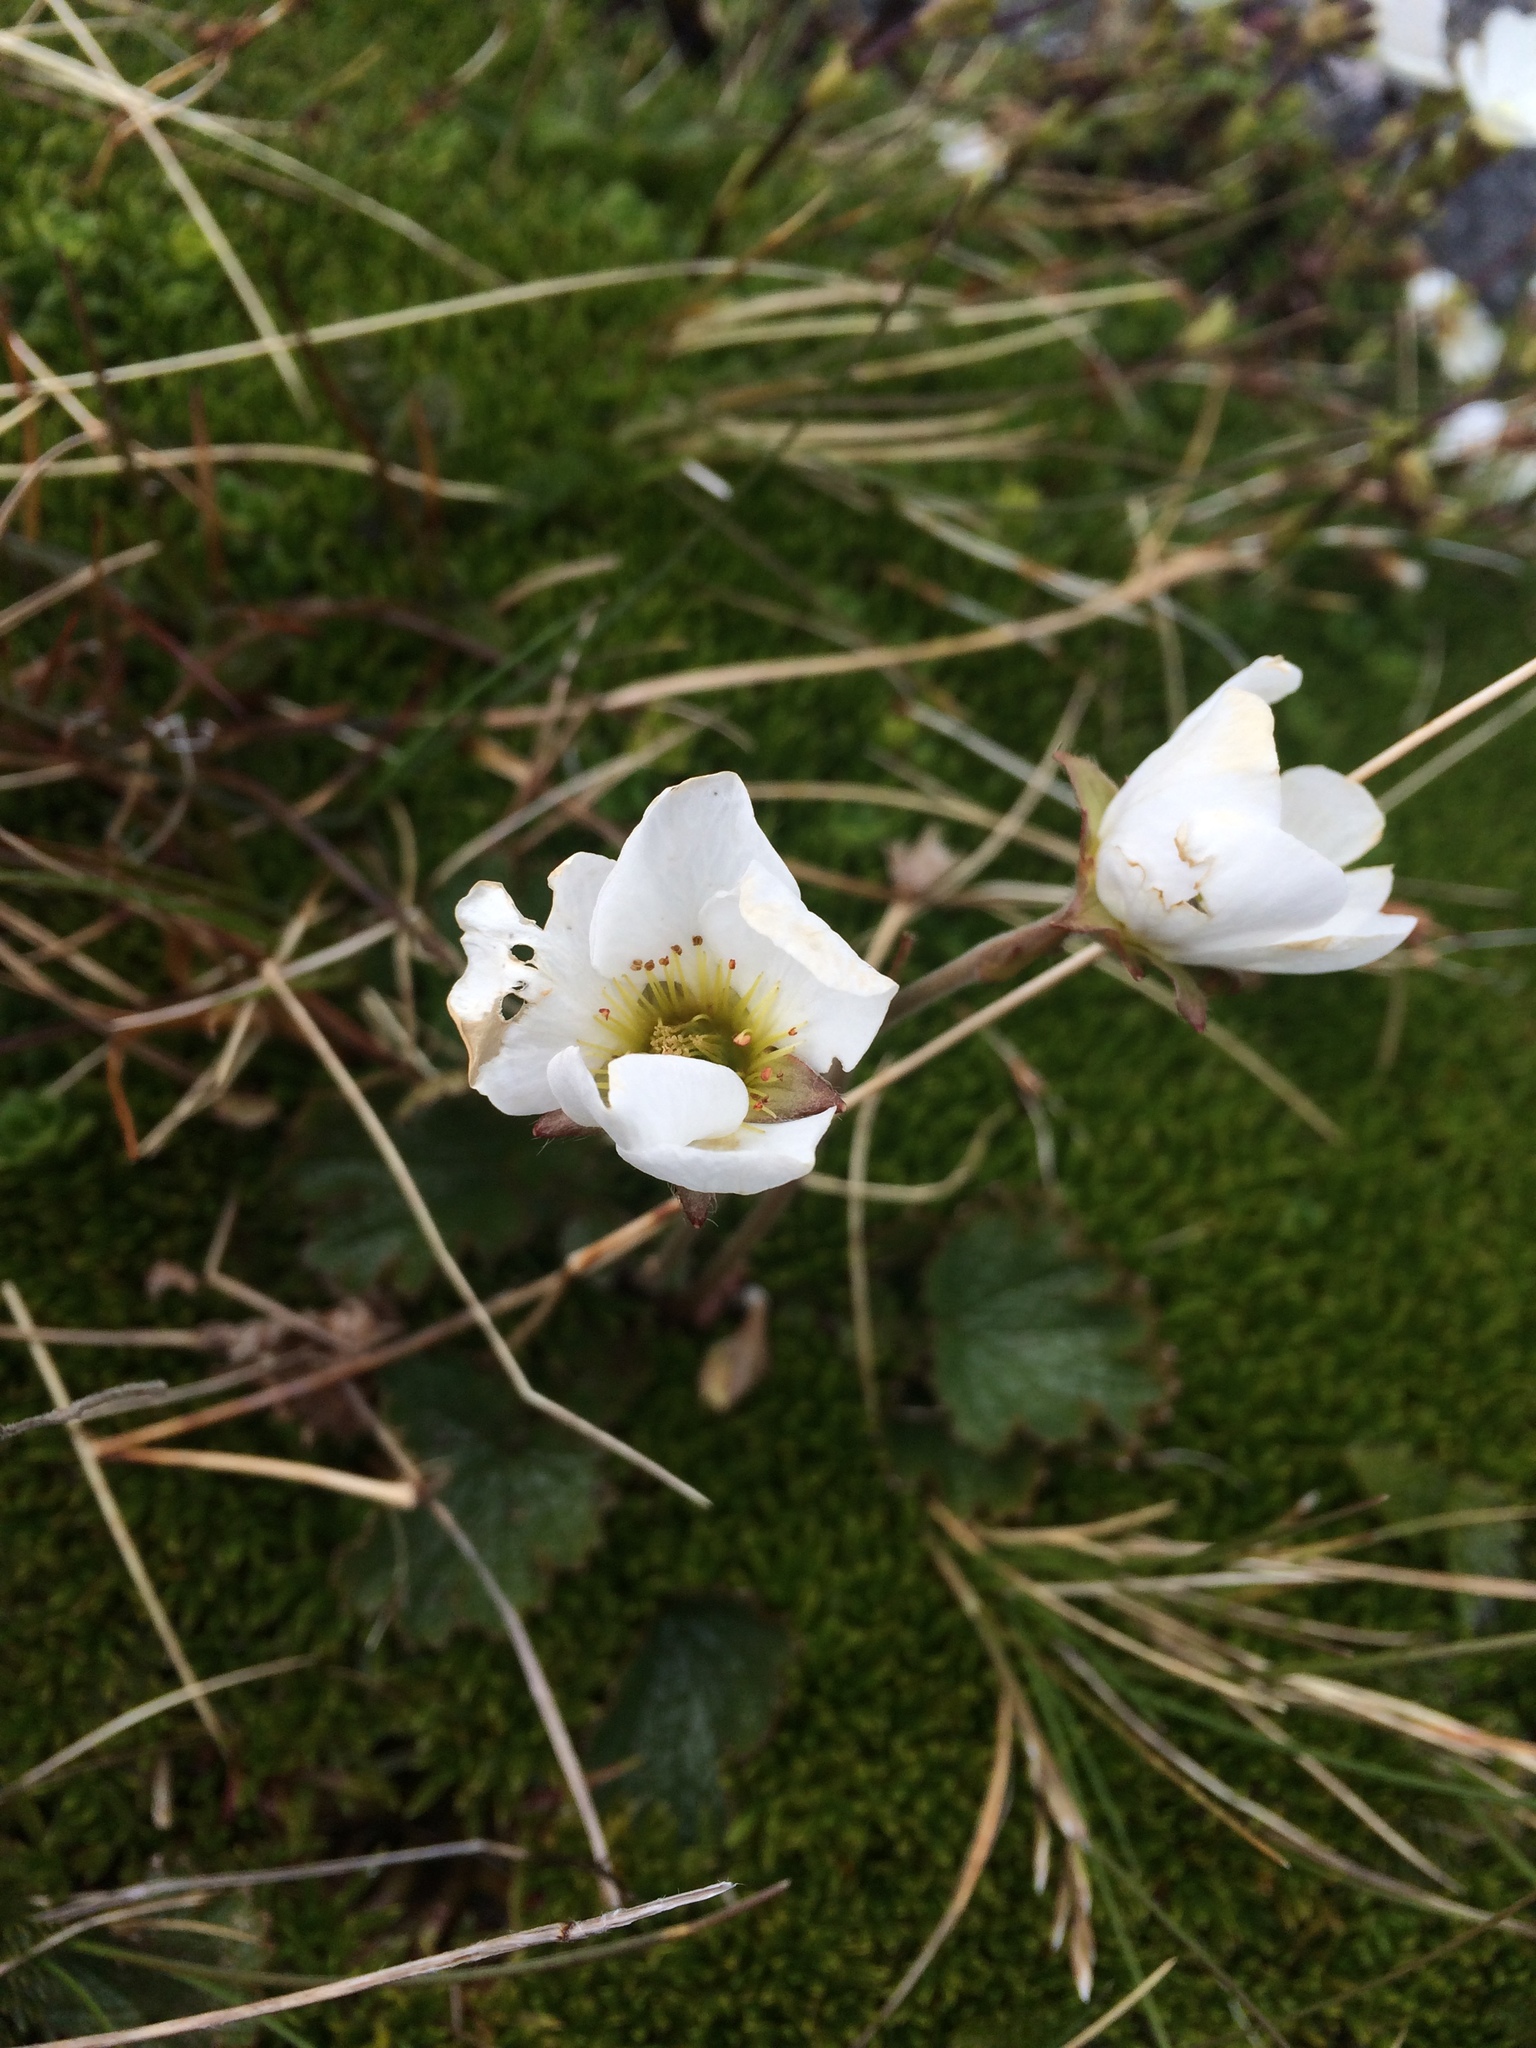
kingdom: Plantae
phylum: Tracheophyta
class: Magnoliopsida
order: Rosales
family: Rosaceae
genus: Geum
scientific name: Geum uniflorum
